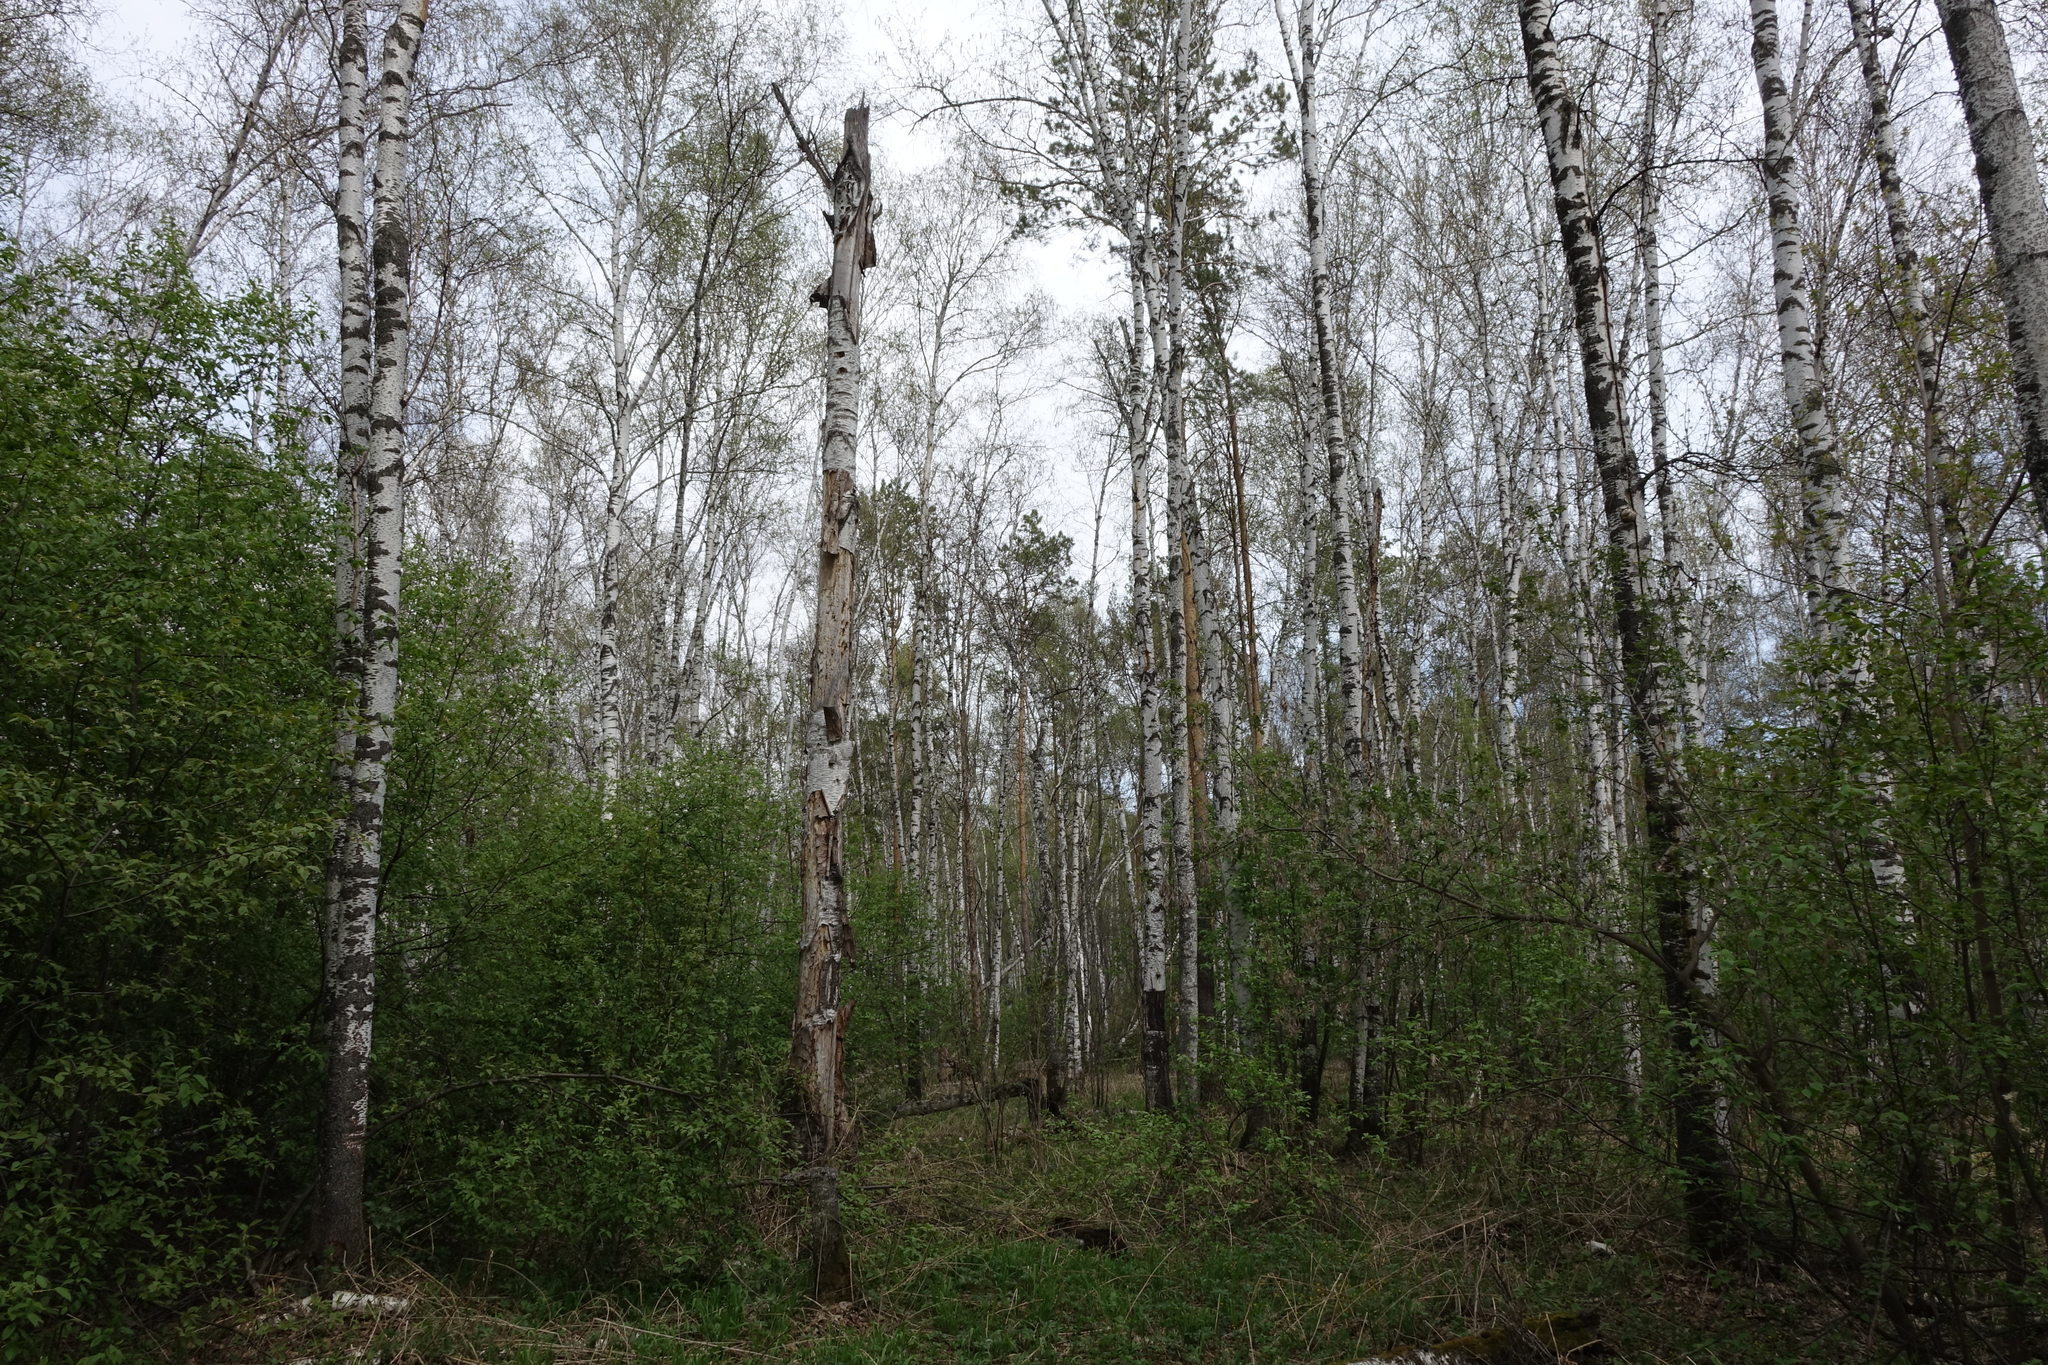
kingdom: Plantae
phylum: Tracheophyta
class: Magnoliopsida
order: Fagales
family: Betulaceae
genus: Betula
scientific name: Betula pubescens
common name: Downy birch
